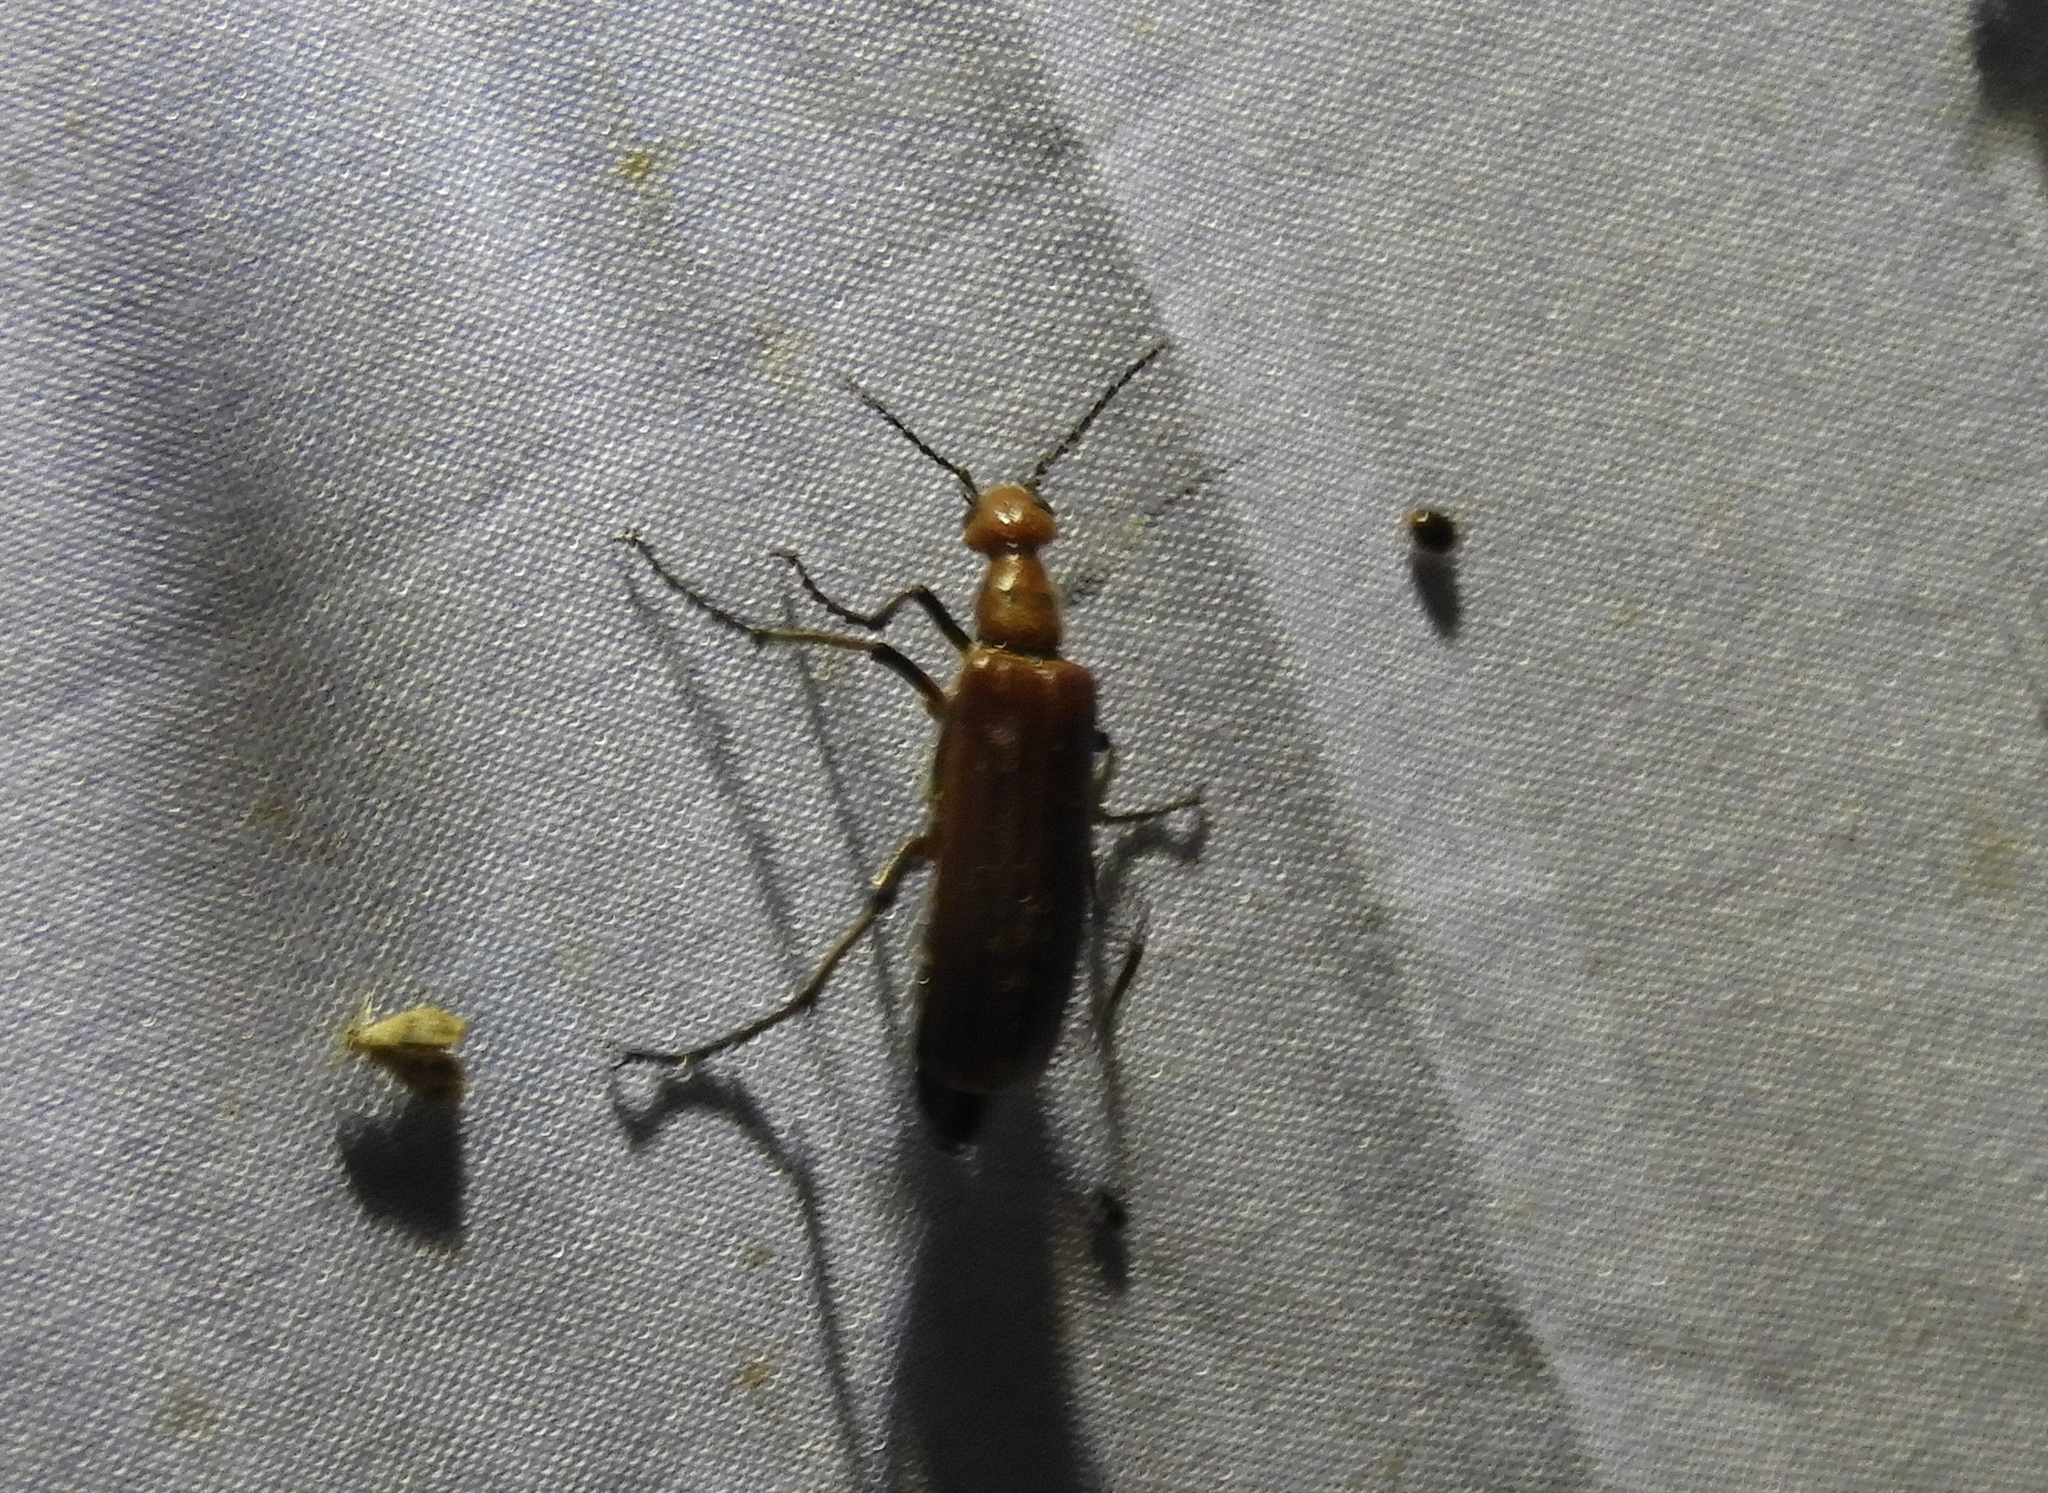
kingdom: Animalia
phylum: Arthropoda
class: Insecta
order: Coleoptera
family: Meloidae
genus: Pyrota
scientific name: Pyrota
